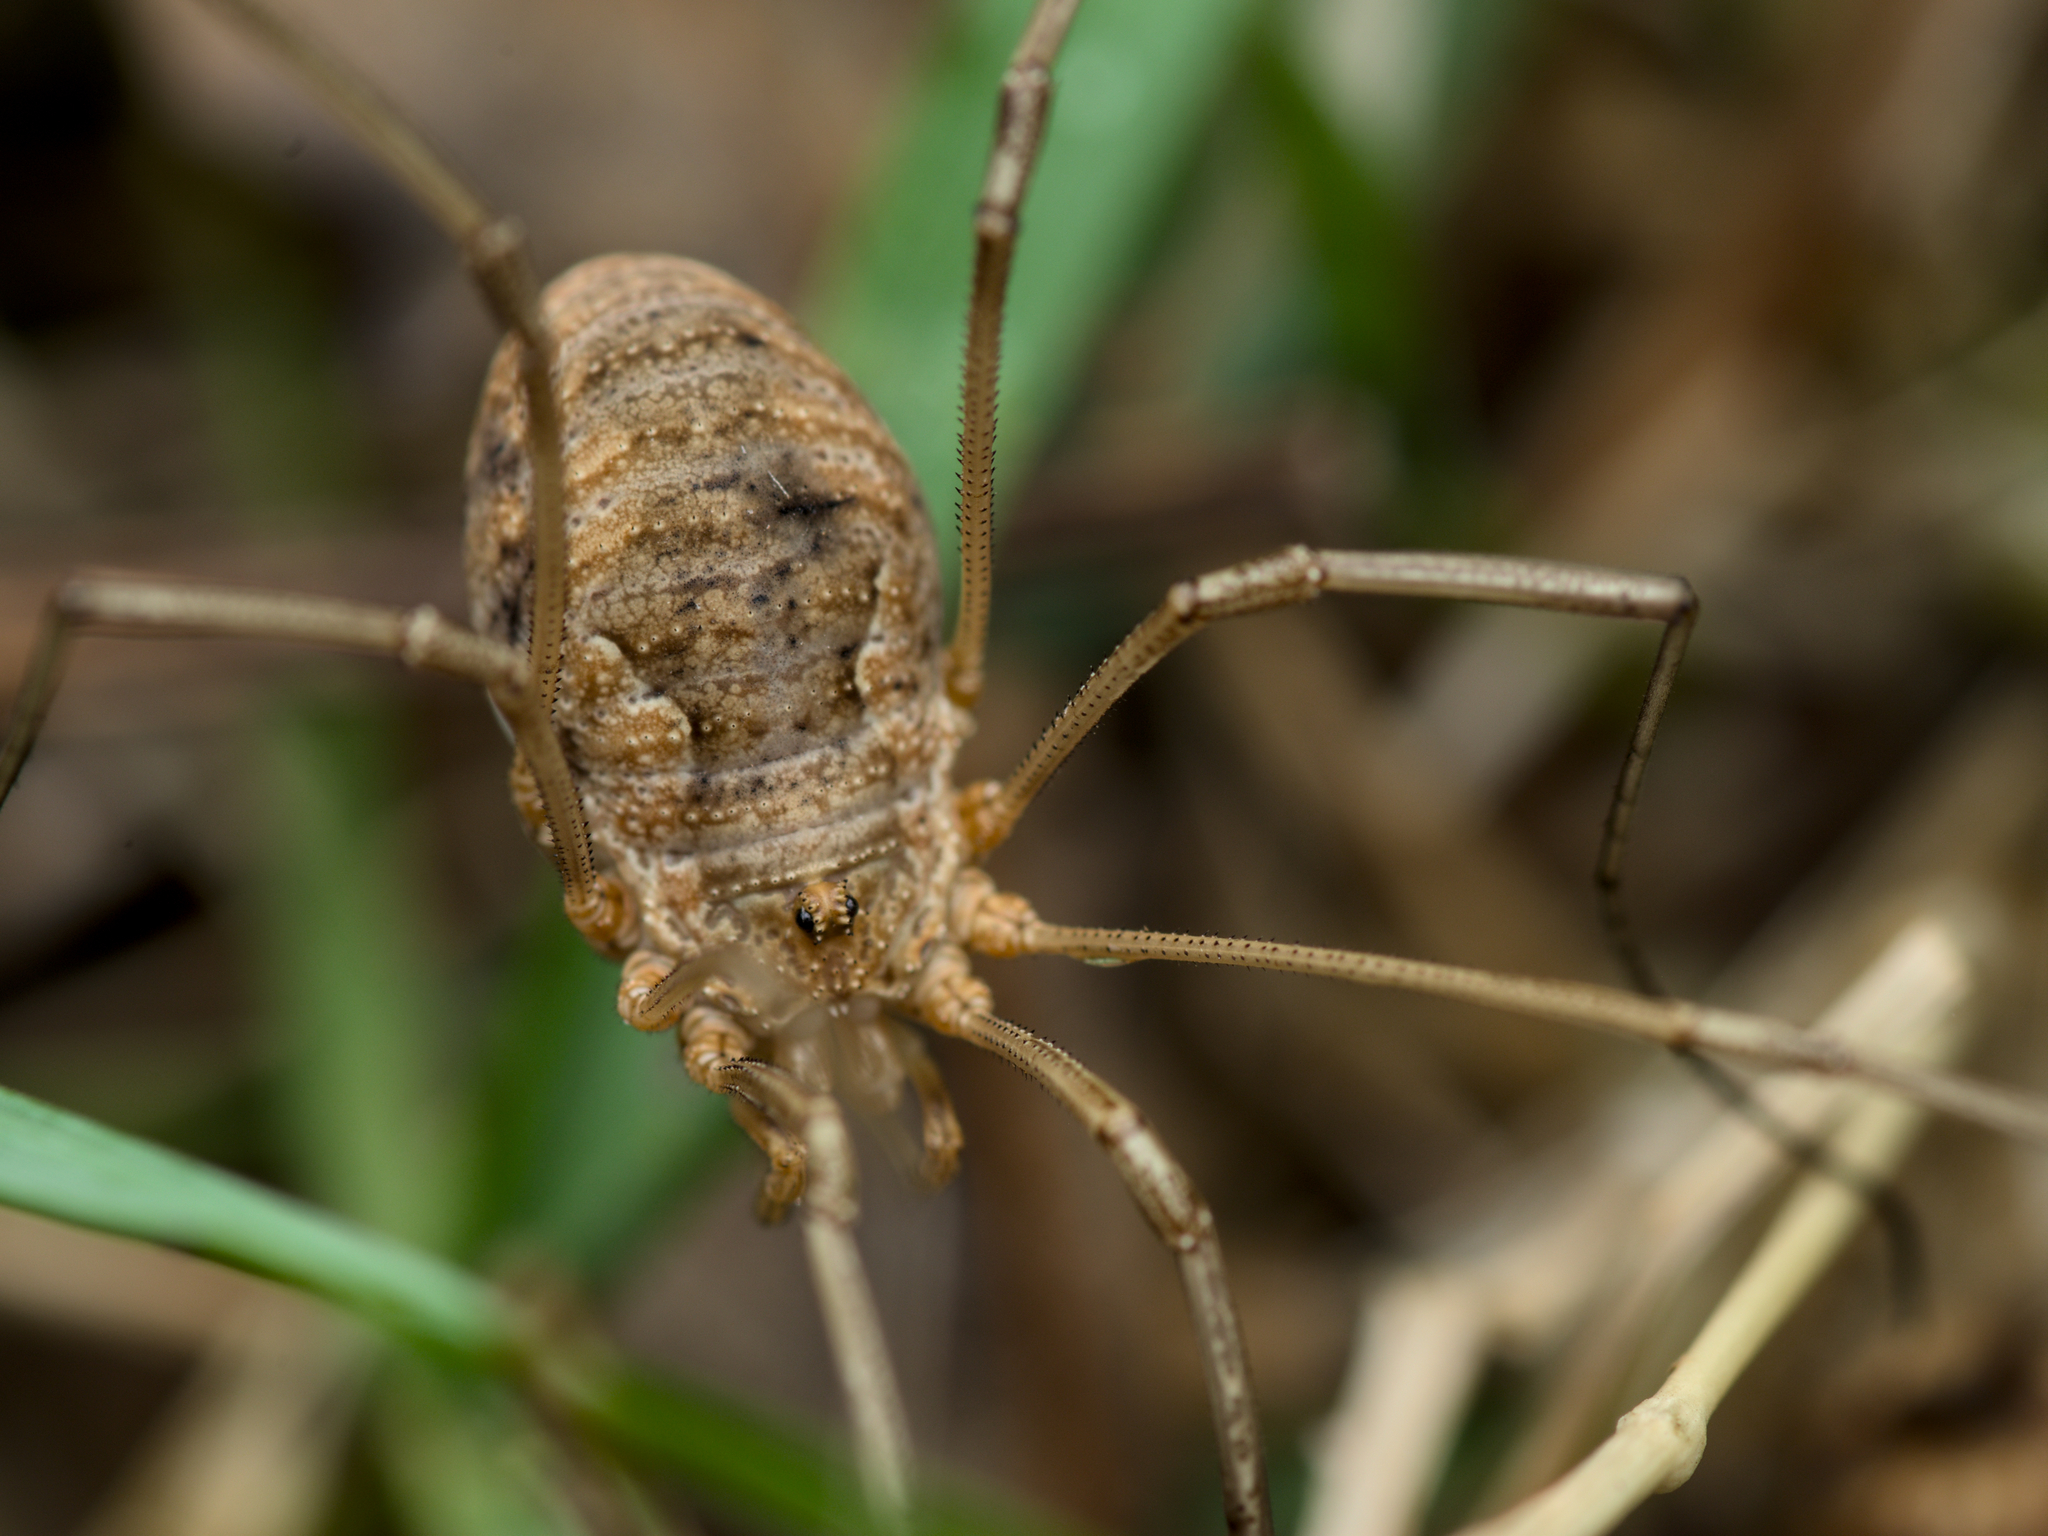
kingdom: Animalia
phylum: Arthropoda
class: Arachnida
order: Opiliones
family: Phalangiidae
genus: Phalangium
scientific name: Phalangium opilio
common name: Daddy longleg
